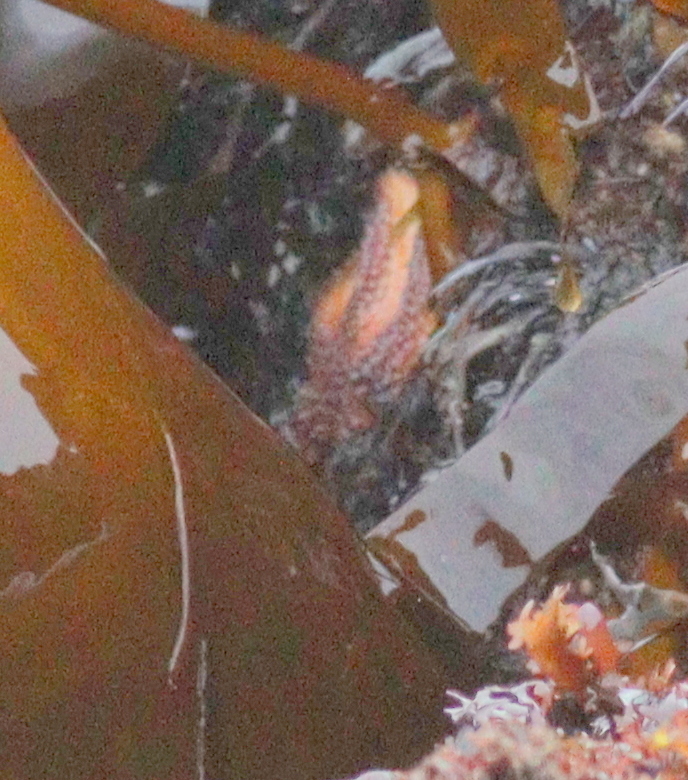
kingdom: Animalia
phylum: Echinodermata
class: Asteroidea
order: Forcipulatida
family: Asteriidae
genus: Asterias
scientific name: Asterias rubens
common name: Common starfish
